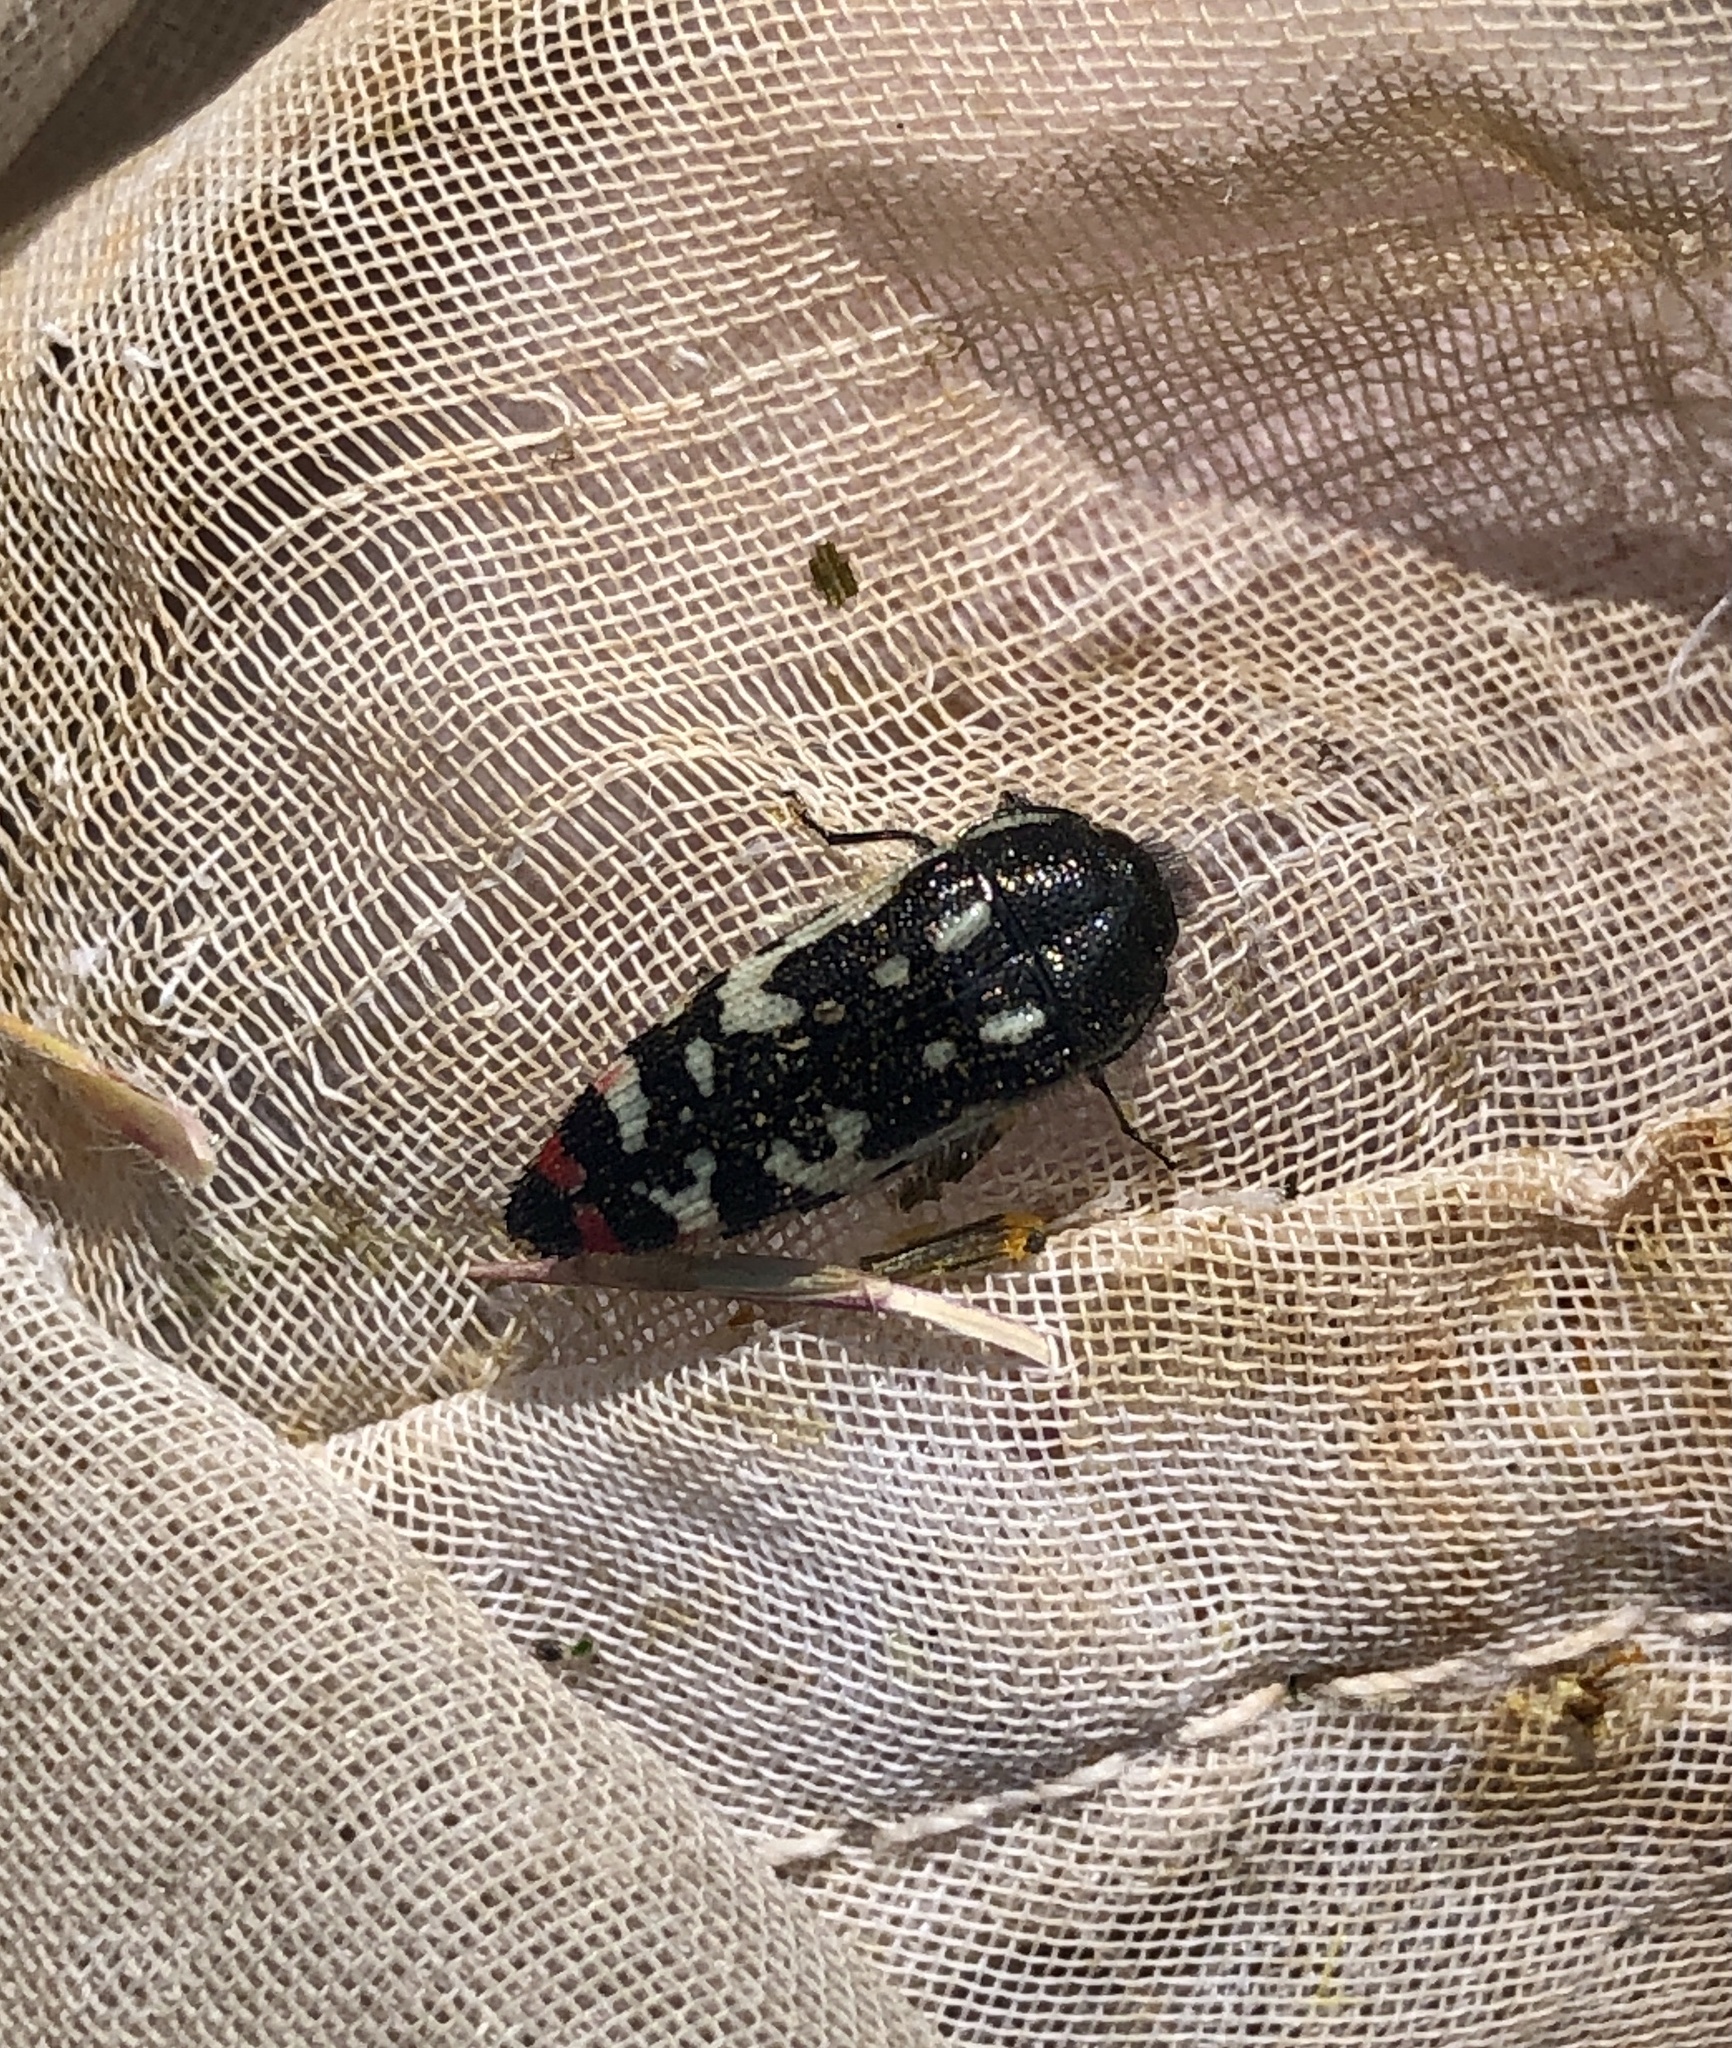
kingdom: Animalia
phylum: Arthropoda
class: Insecta
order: Coleoptera
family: Buprestidae
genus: Acmaeodera
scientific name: Acmaeodera amabilis
